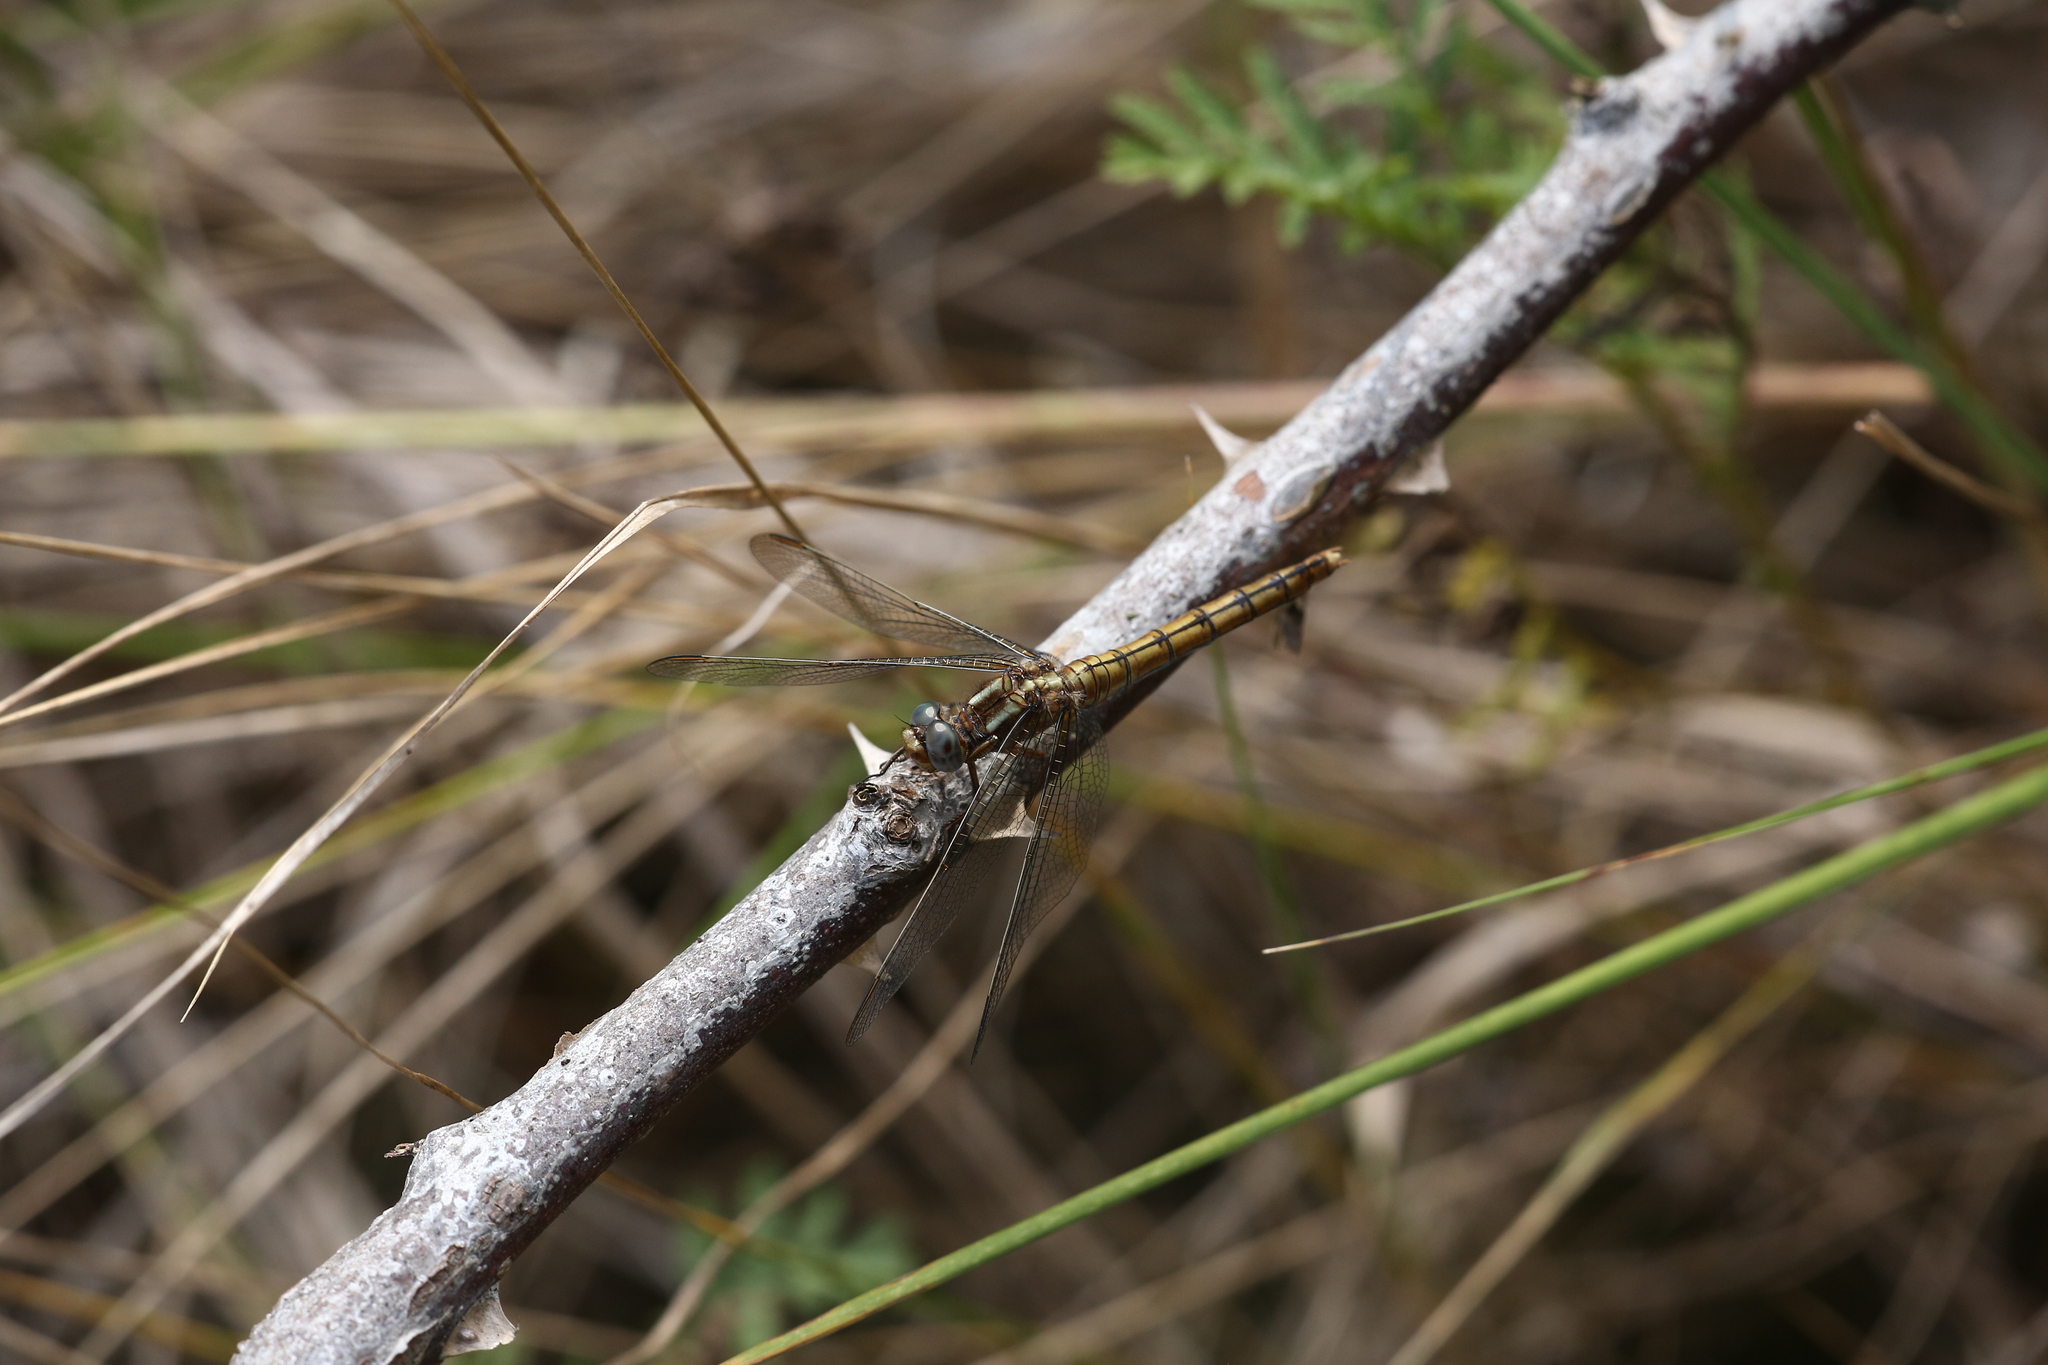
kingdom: Animalia
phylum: Arthropoda
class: Insecta
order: Odonata
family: Libellulidae
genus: Orthetrum
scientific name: Orthetrum coerulescens
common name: Keeled skimmer
